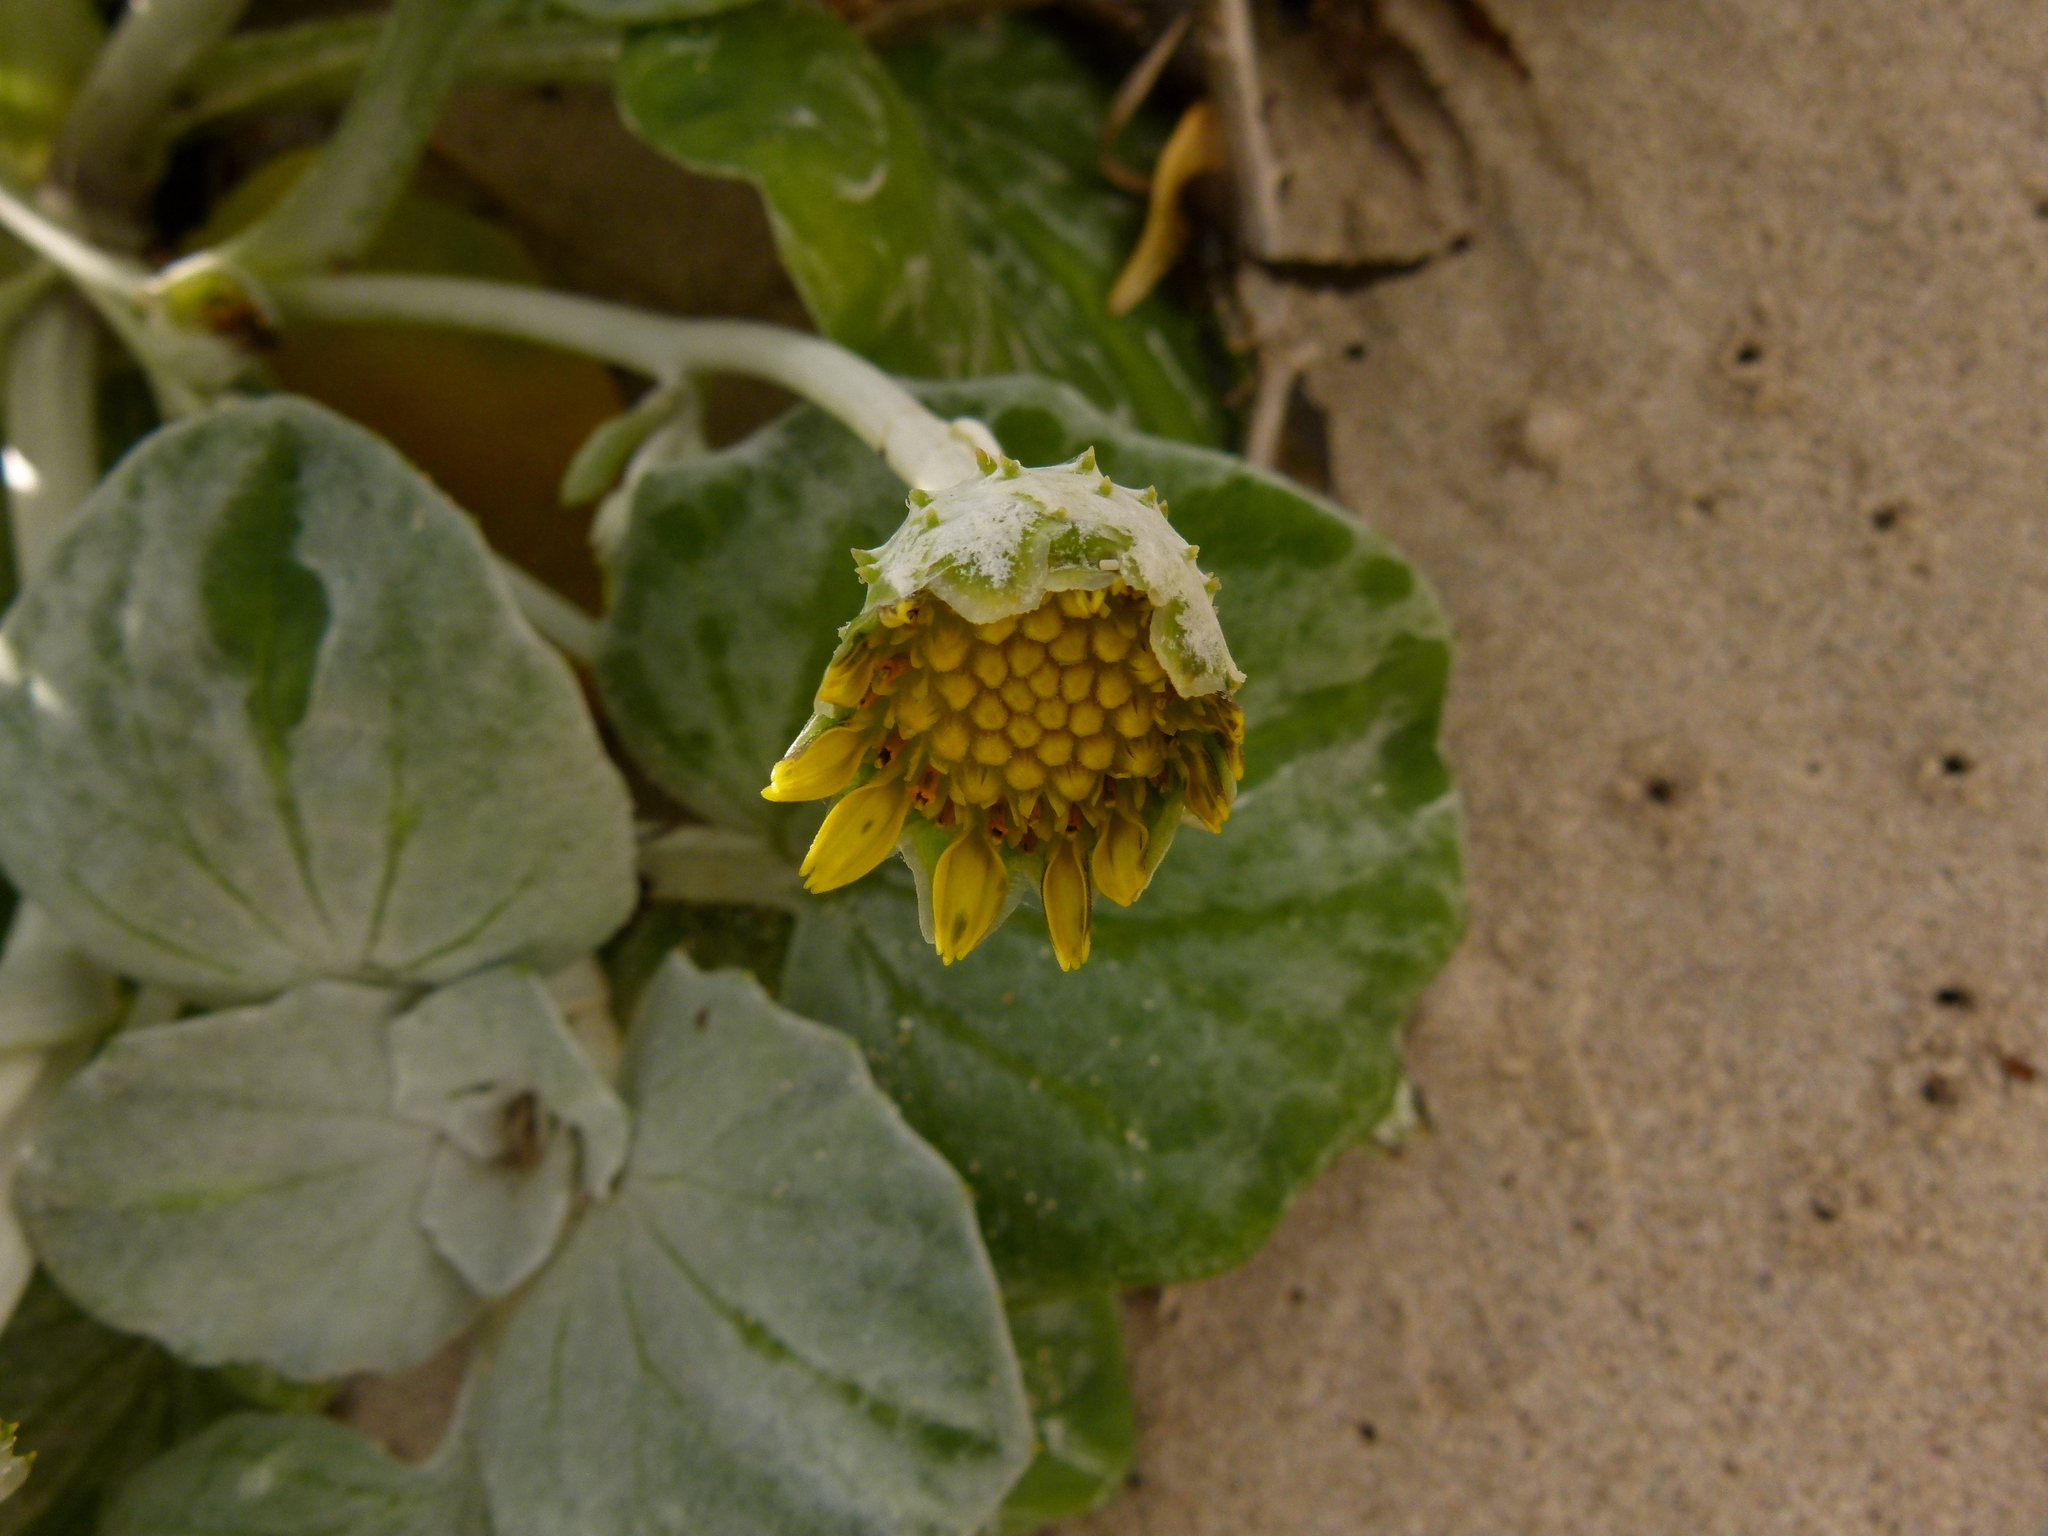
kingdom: Plantae
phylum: Tracheophyta
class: Magnoliopsida
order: Asterales
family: Asteraceae
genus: Arctotheca
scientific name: Arctotheca populifolia
